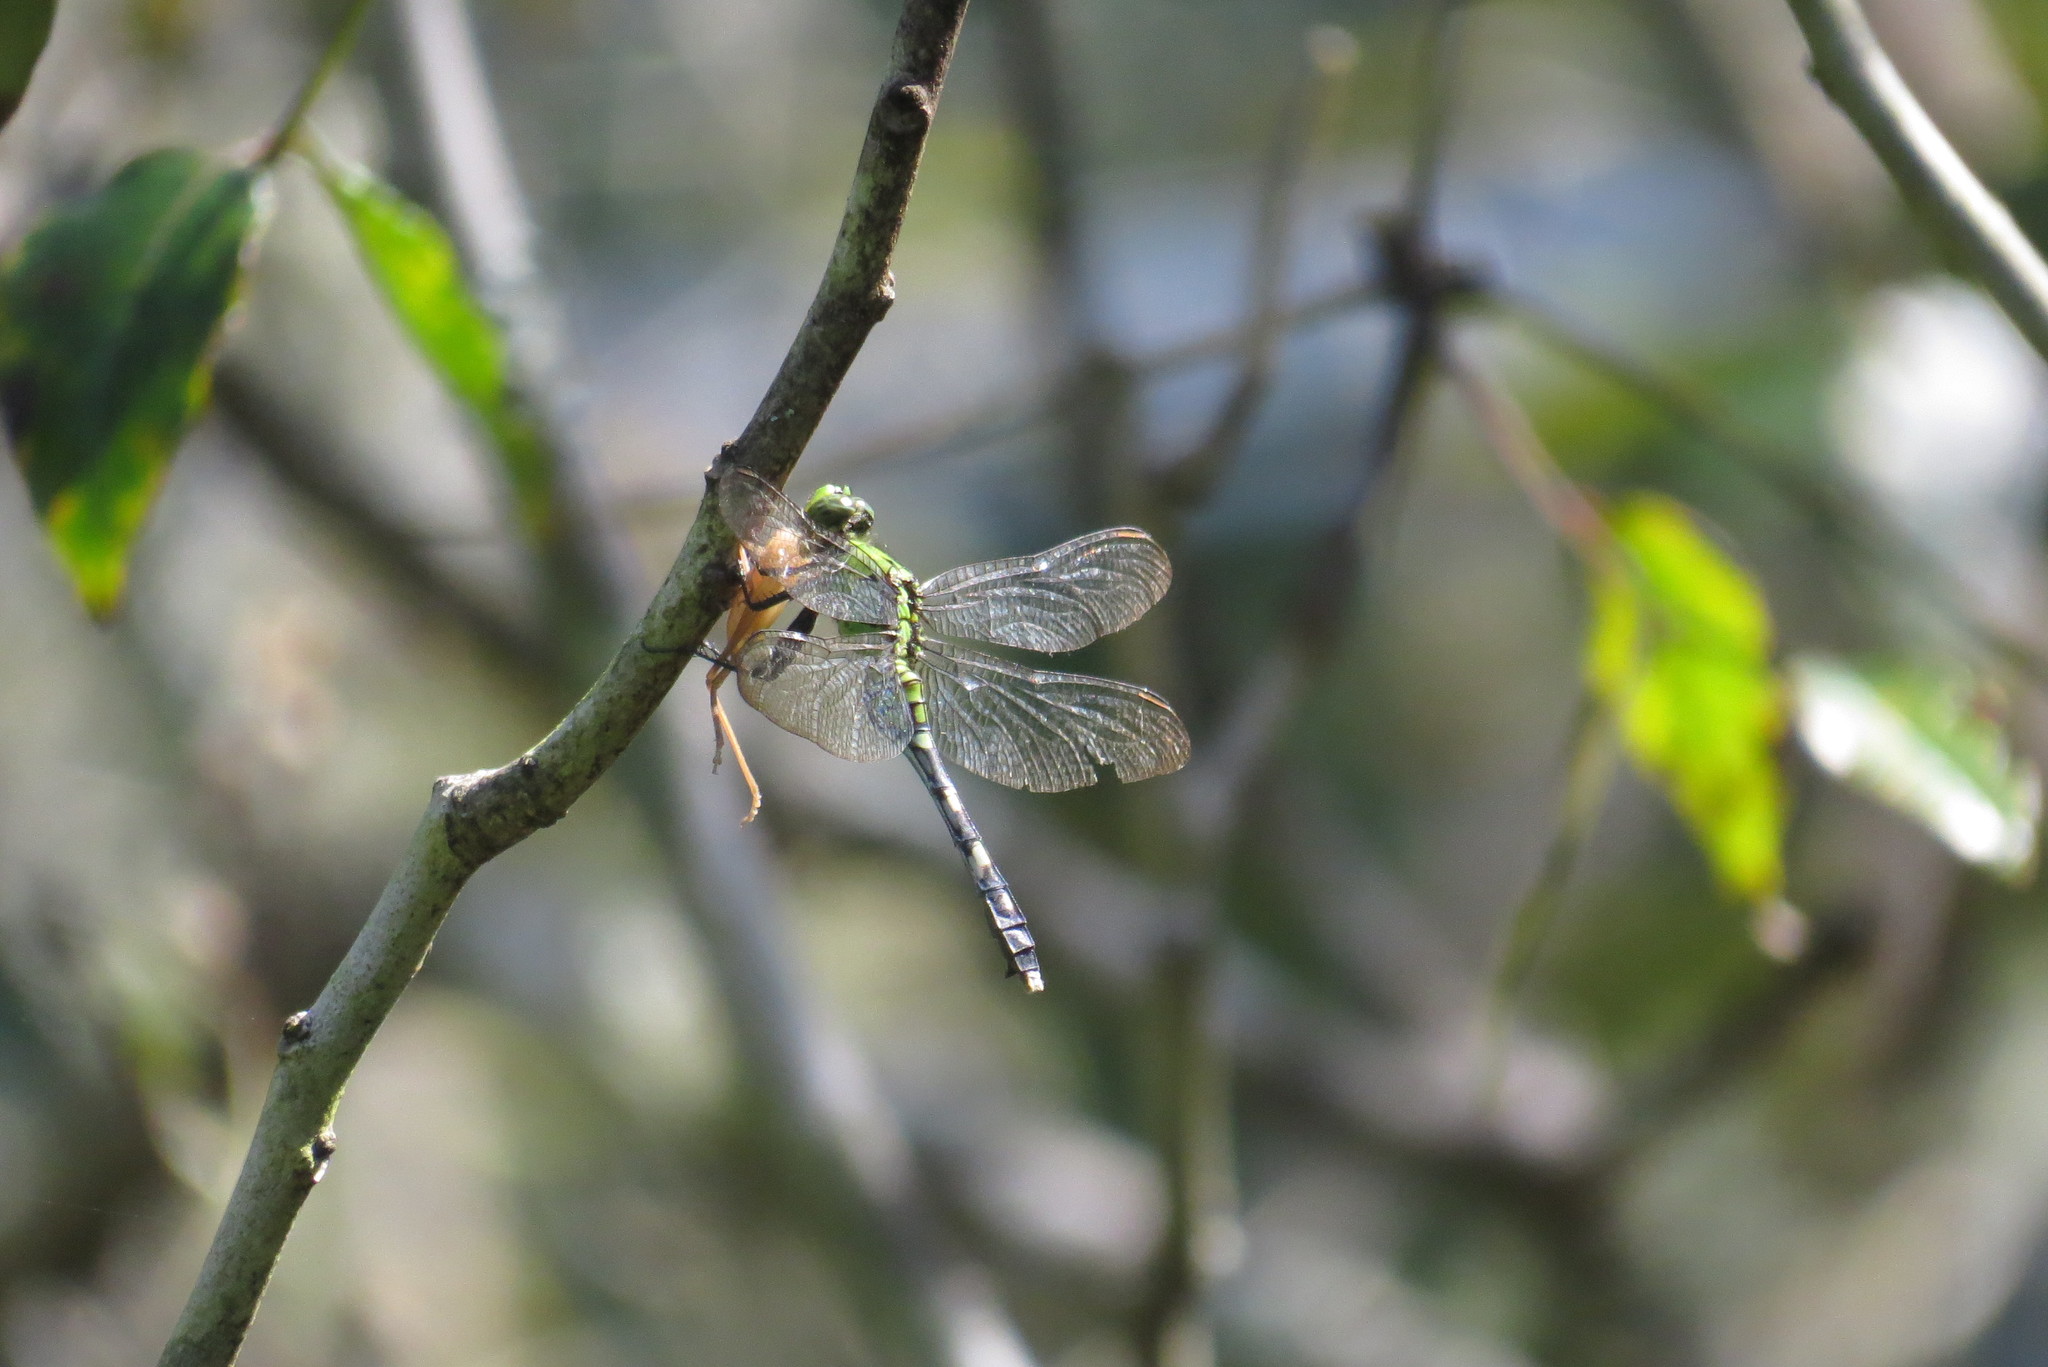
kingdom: Animalia
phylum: Arthropoda
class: Insecta
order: Odonata
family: Libellulidae
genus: Erythemis
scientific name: Erythemis simplicicollis
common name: Eastern pondhawk
